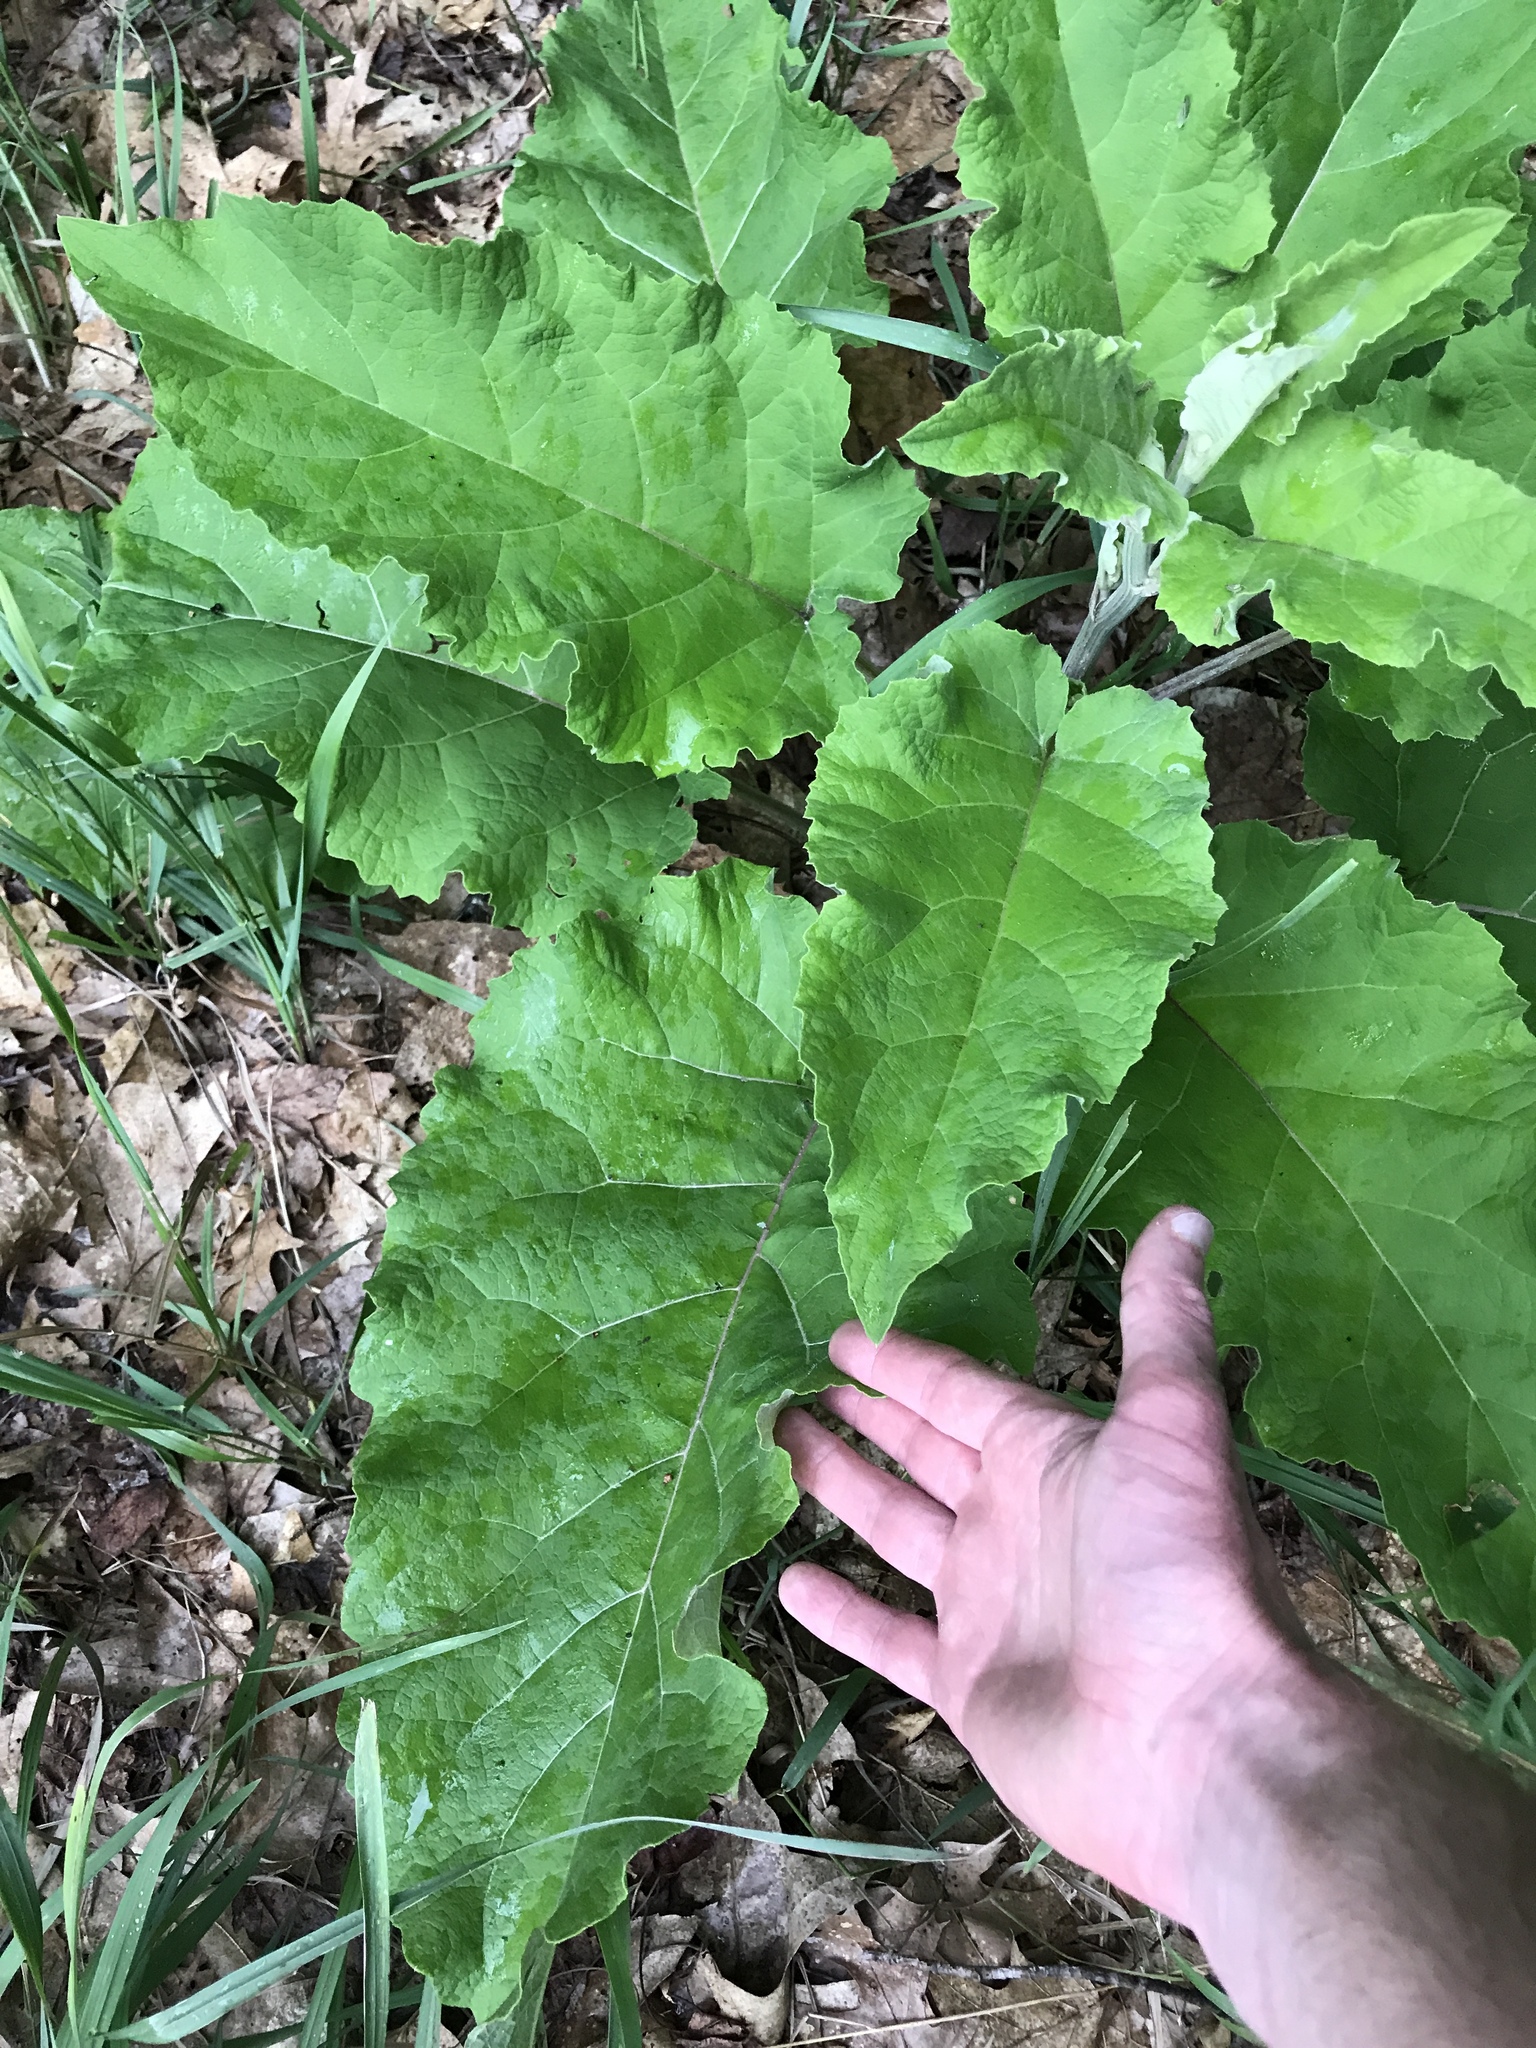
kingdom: Plantae
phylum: Tracheophyta
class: Magnoliopsida
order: Asterales
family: Asteraceae
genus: Arctium
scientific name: Arctium
